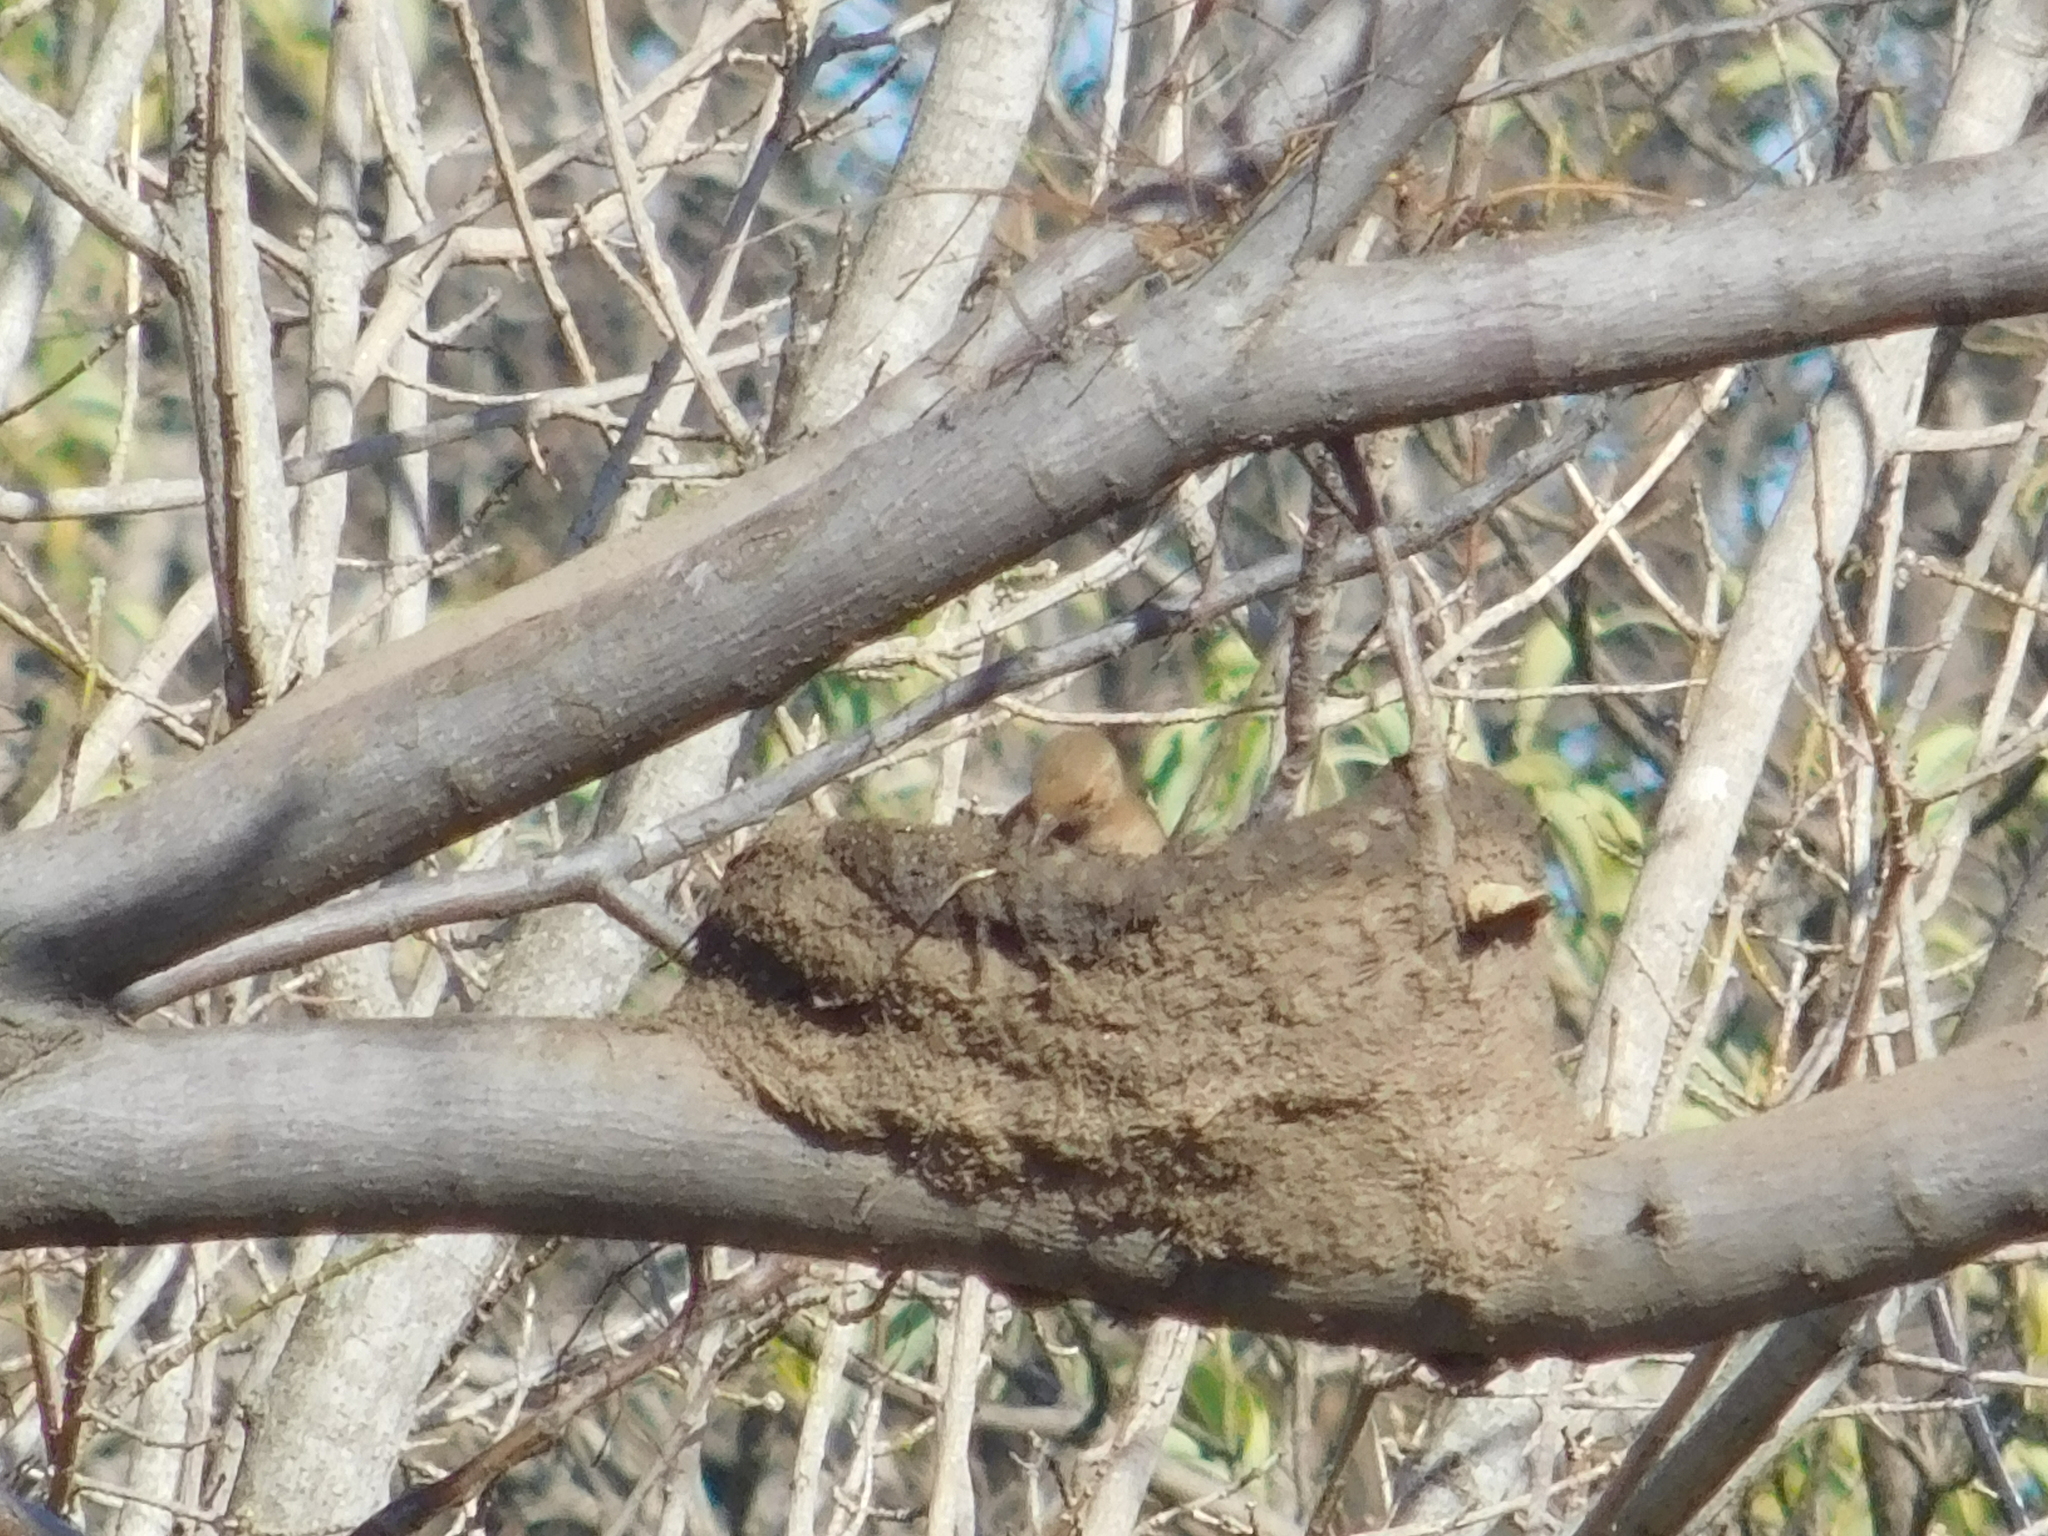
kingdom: Animalia
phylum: Chordata
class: Aves
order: Passeriformes
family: Furnariidae
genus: Furnarius
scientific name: Furnarius rufus
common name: Rufous hornero
